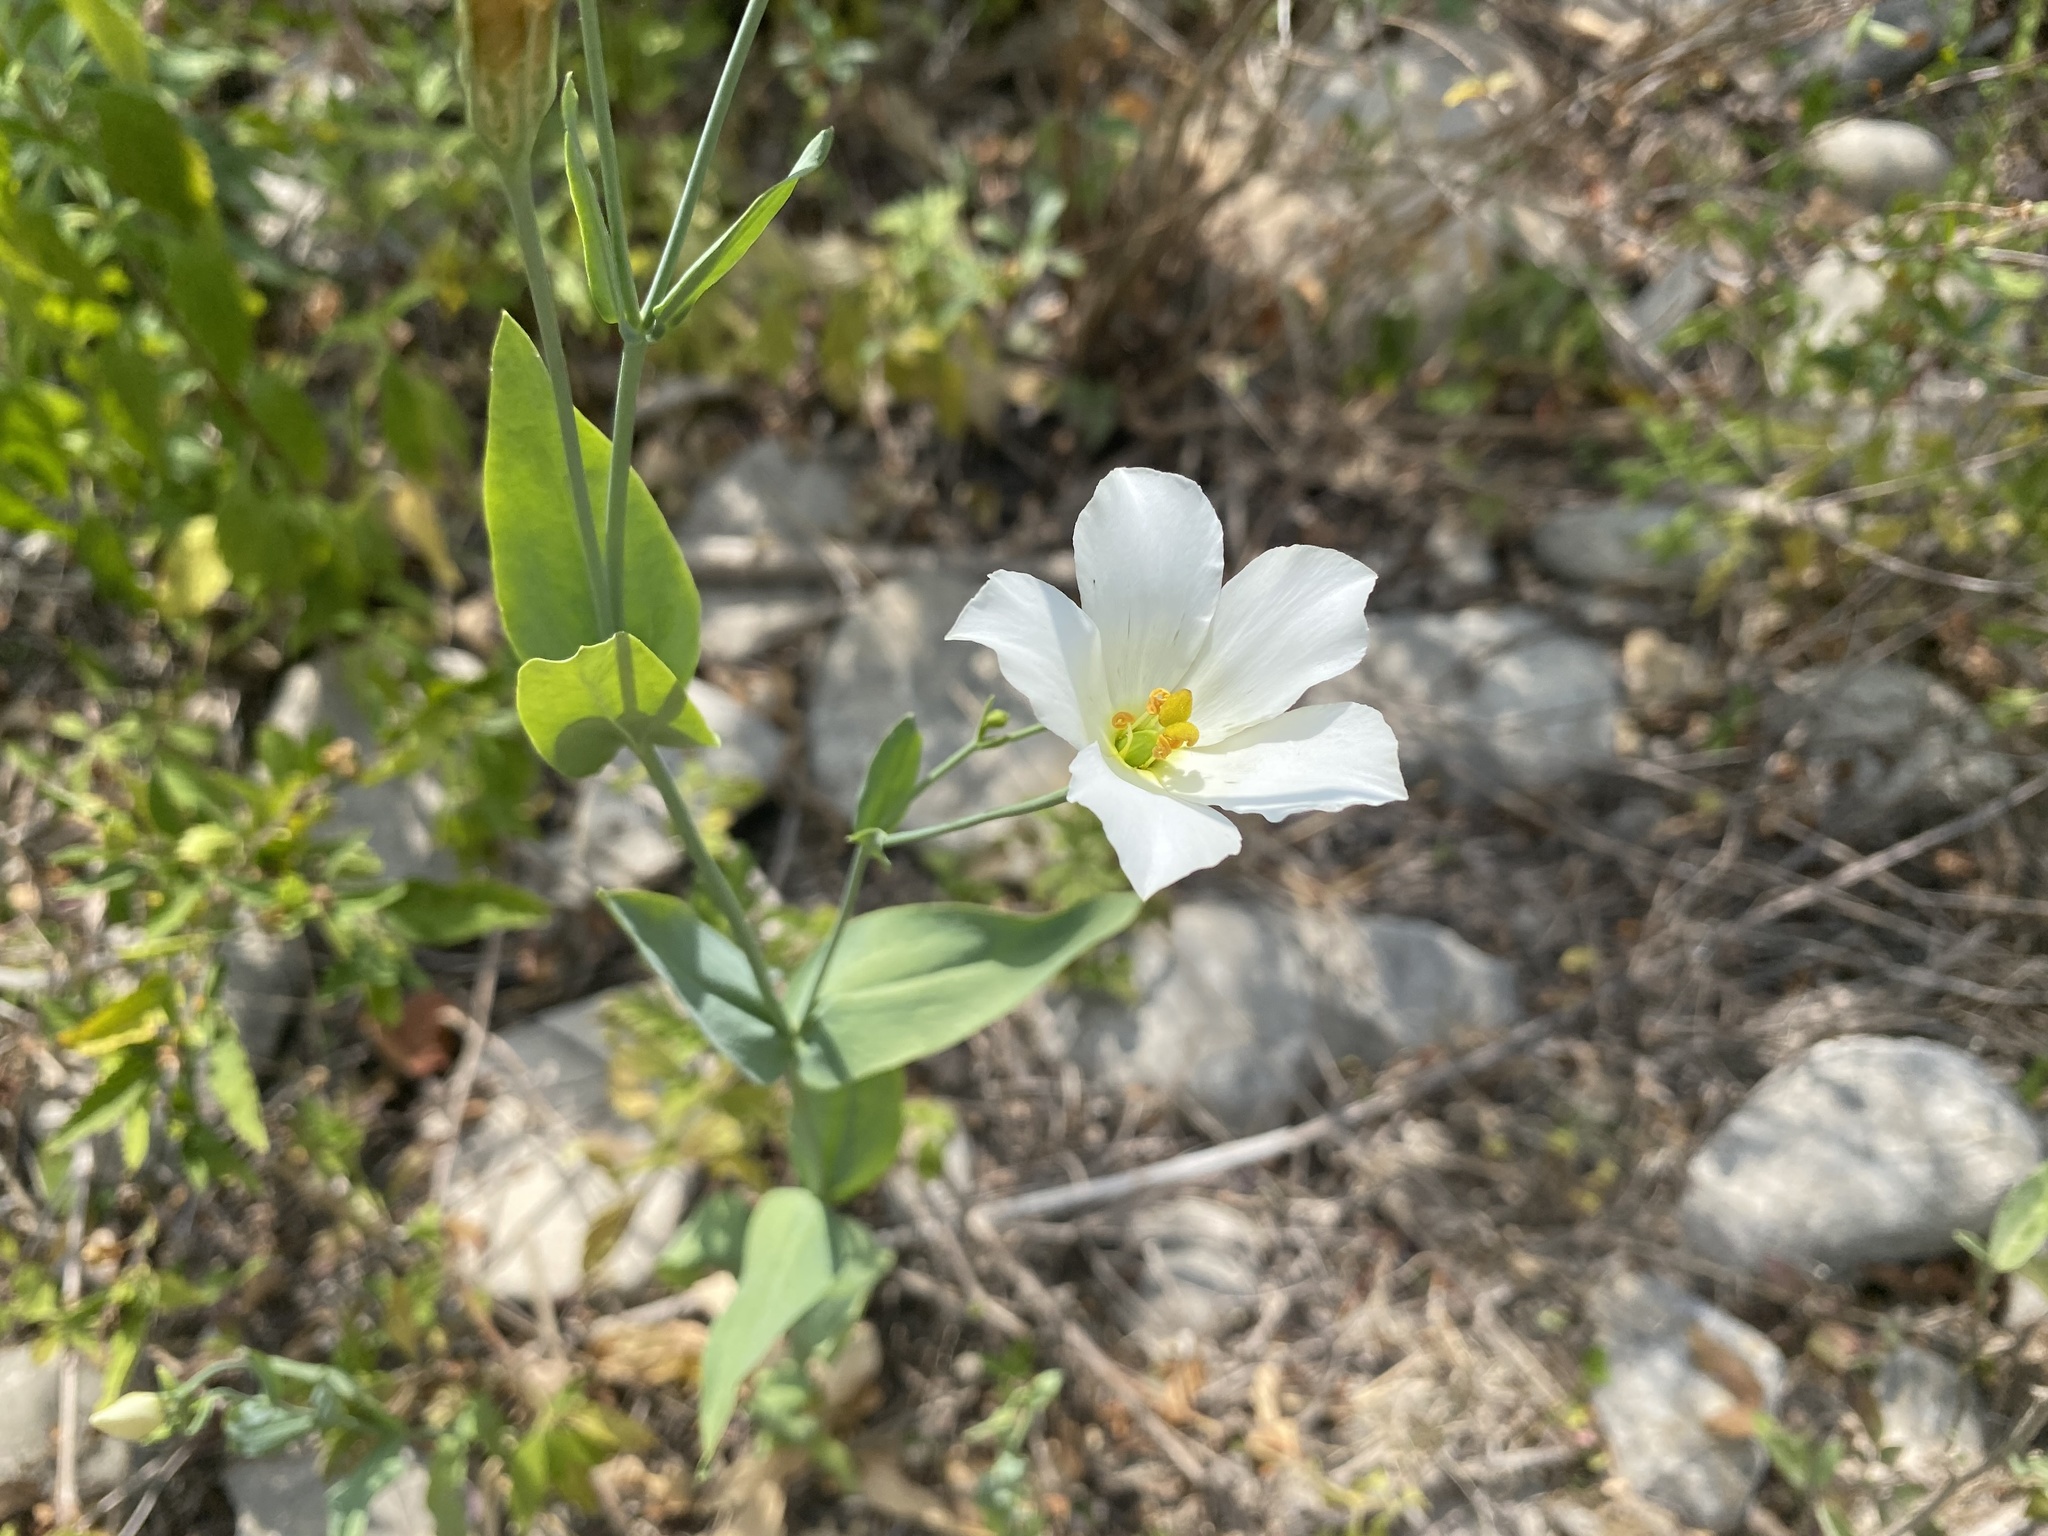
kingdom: Plantae
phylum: Tracheophyta
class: Magnoliopsida
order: Gentianales
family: Gentianaceae
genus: Eustoma
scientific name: Eustoma exaltatum
